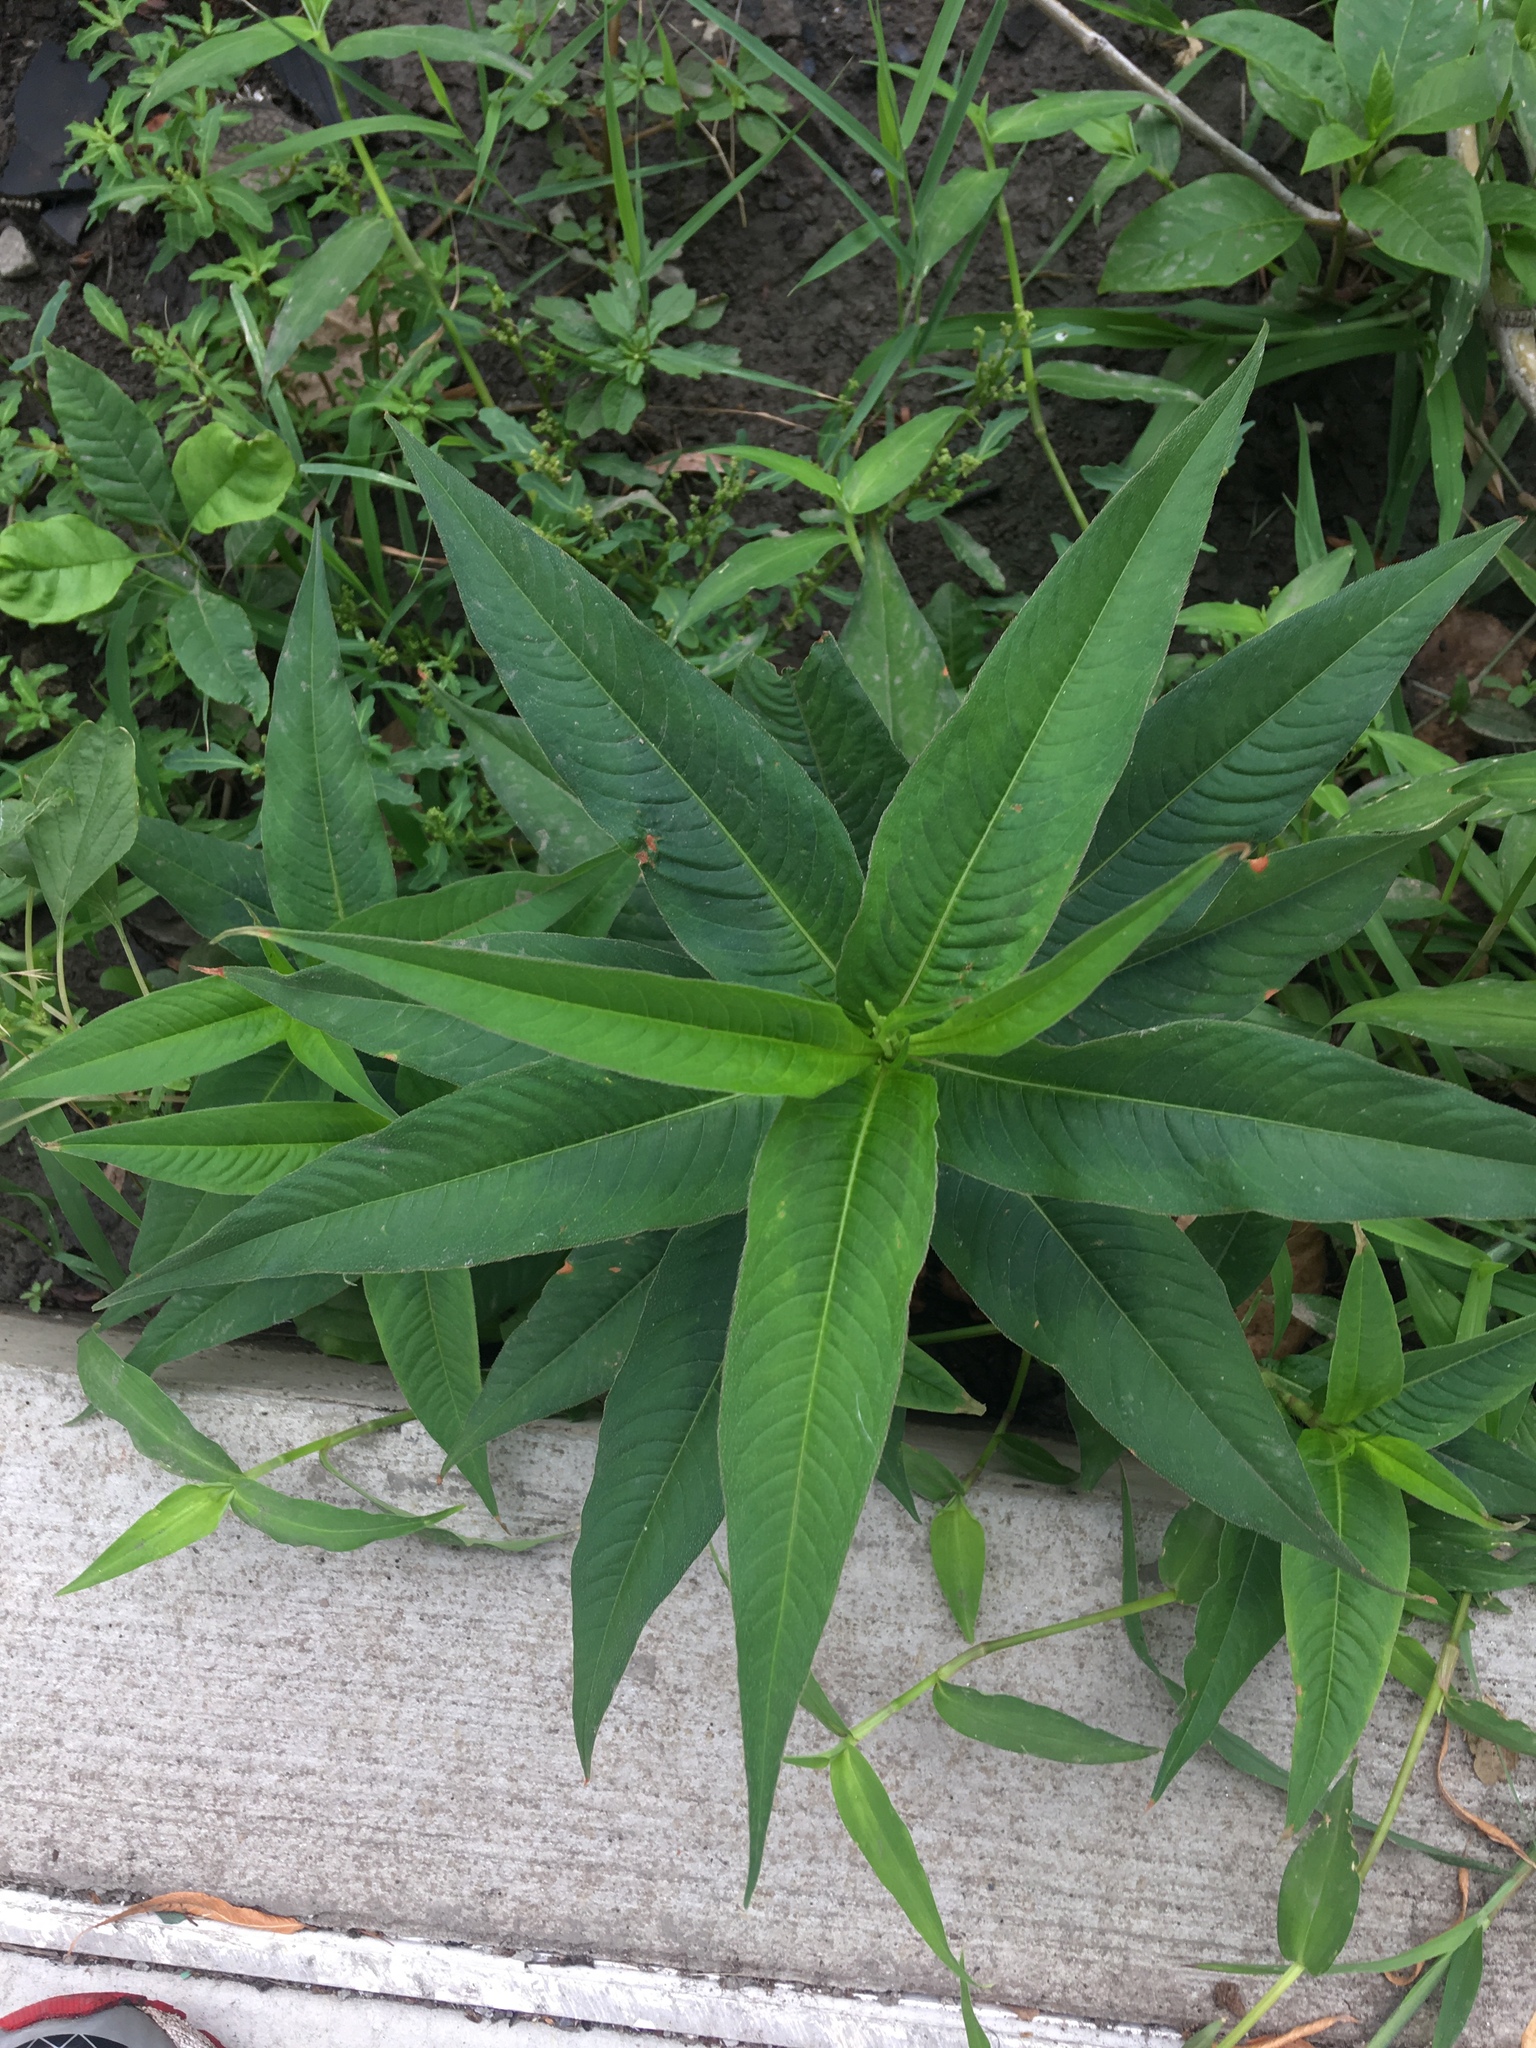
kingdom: Plantae
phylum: Tracheophyta
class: Magnoliopsida
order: Caryophyllales
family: Polygonaceae
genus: Persicaria
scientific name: Persicaria extremiorientalis
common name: Far-eastern smartweed
